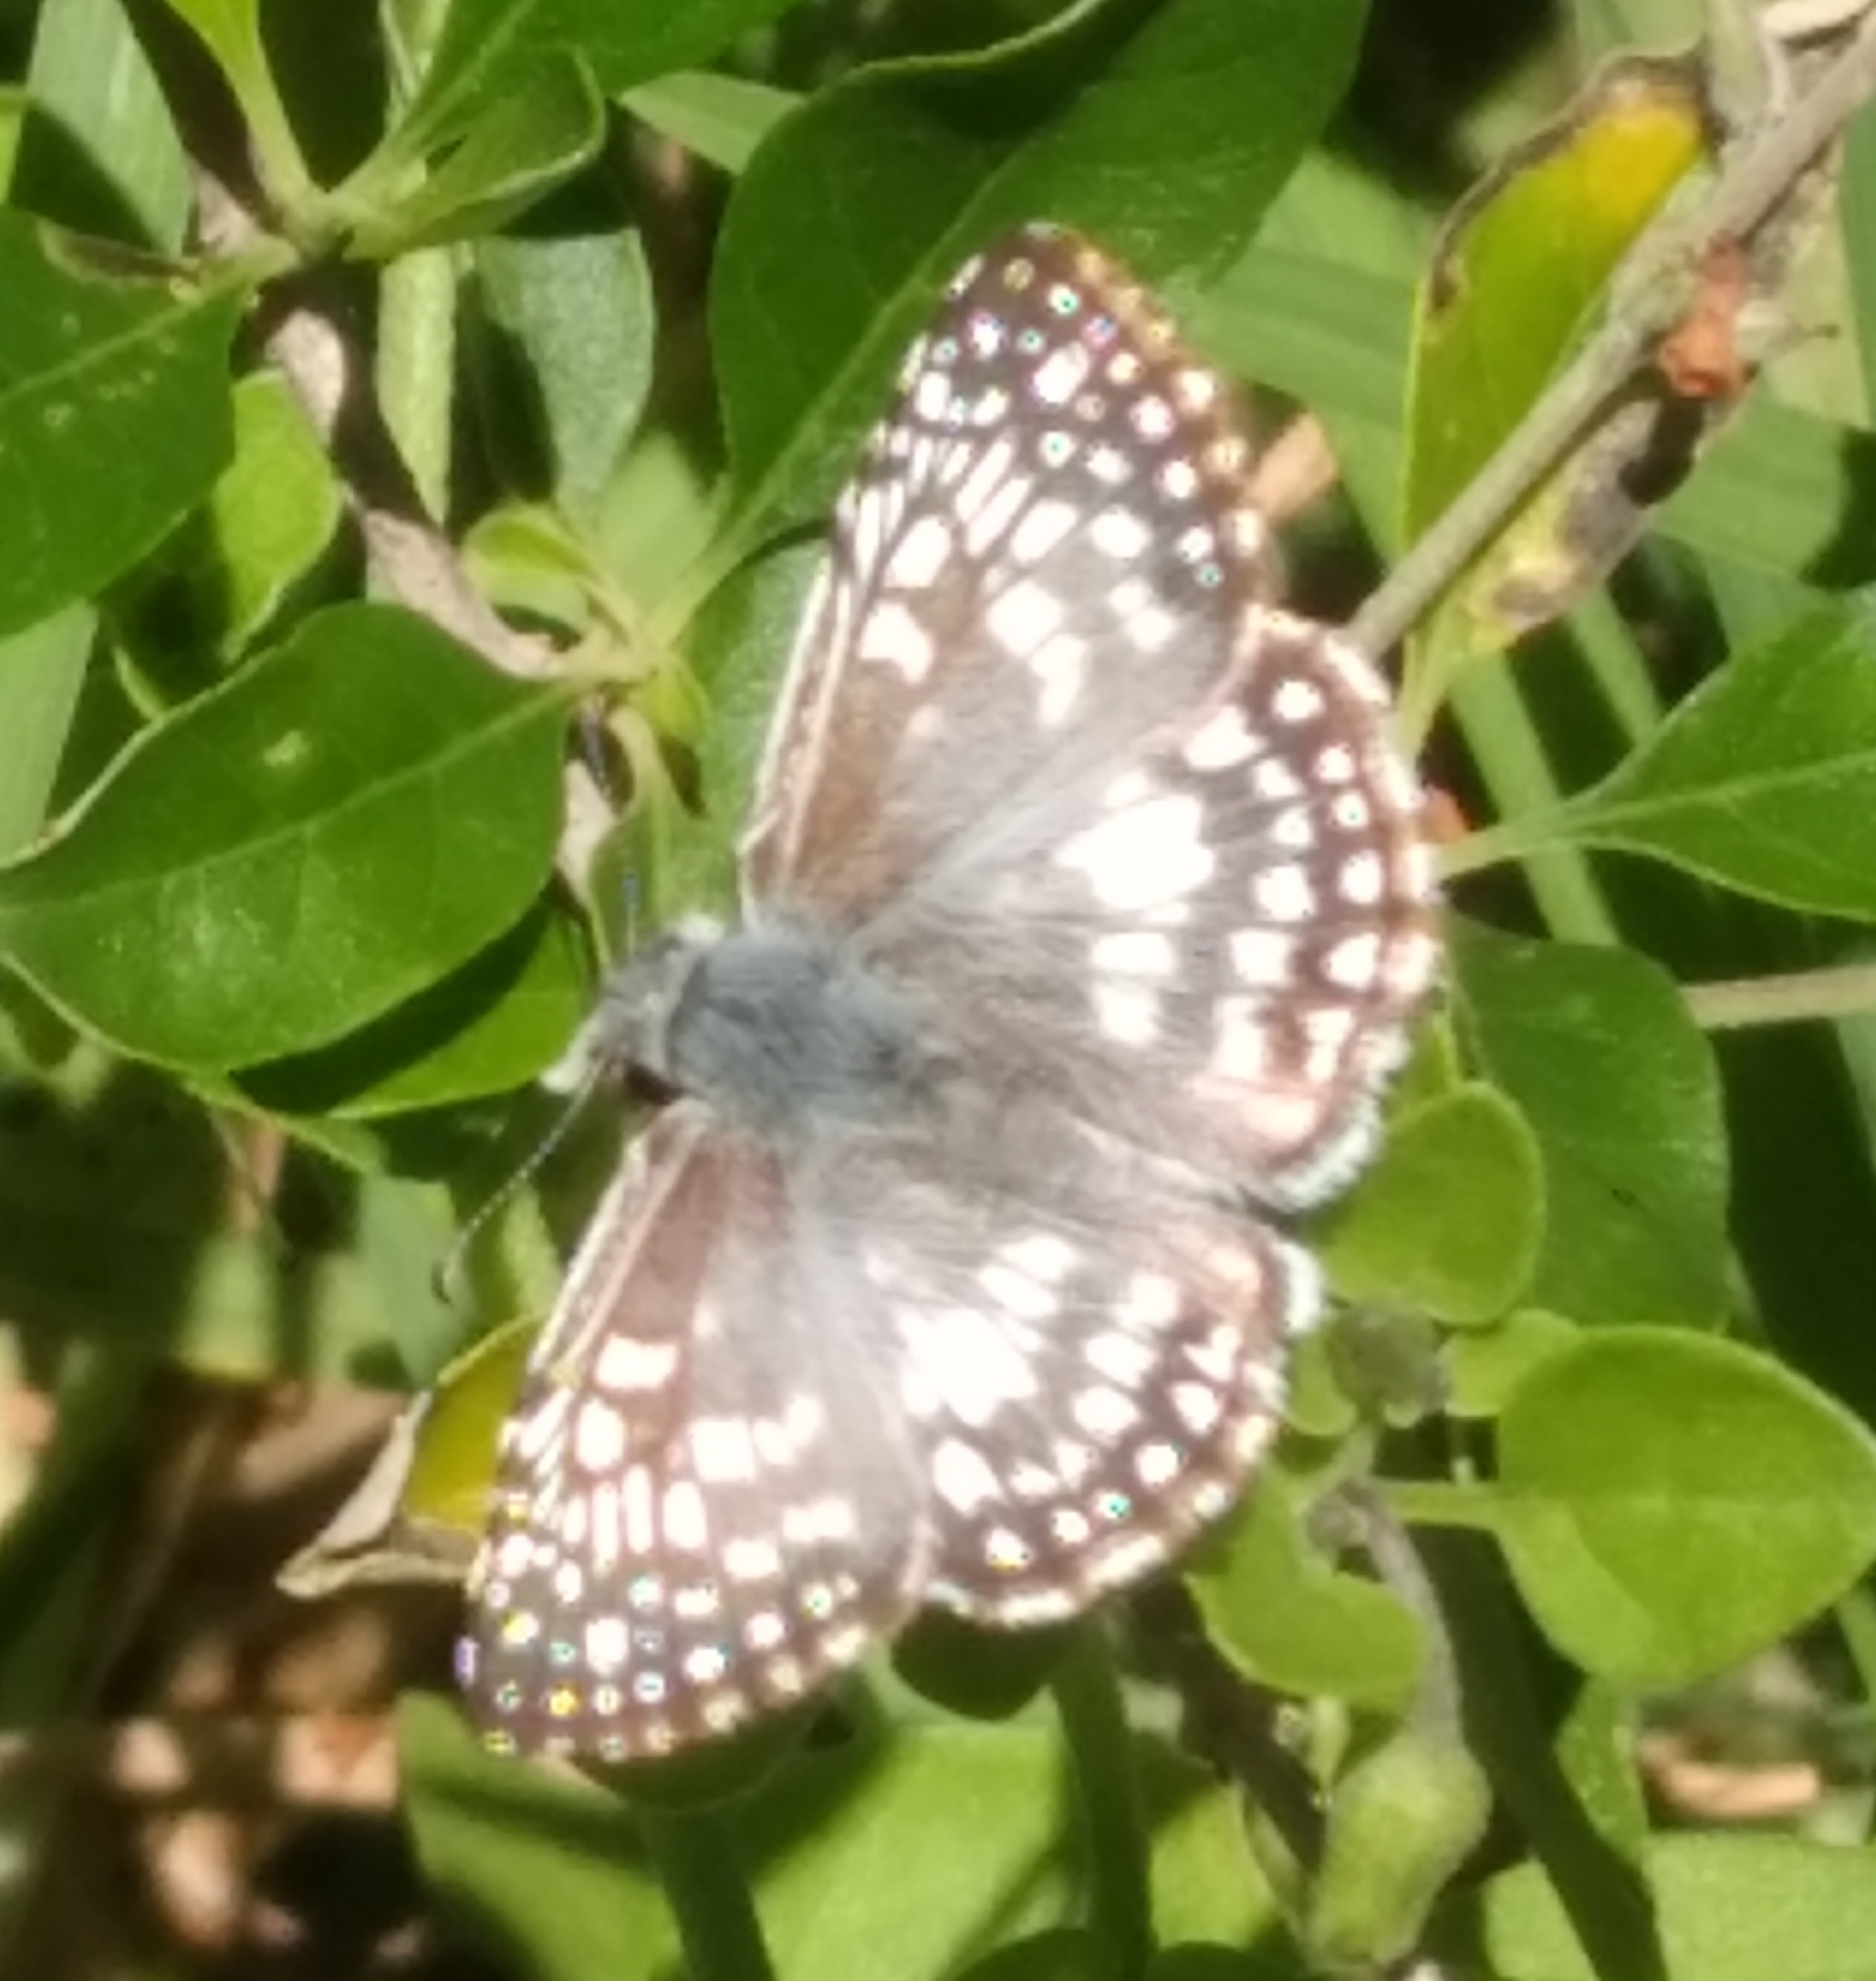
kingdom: Animalia
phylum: Arthropoda
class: Insecta
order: Lepidoptera
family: Hesperiidae
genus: Pyrgus
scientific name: Pyrgus oileus
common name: Tropical checkered-skipper
